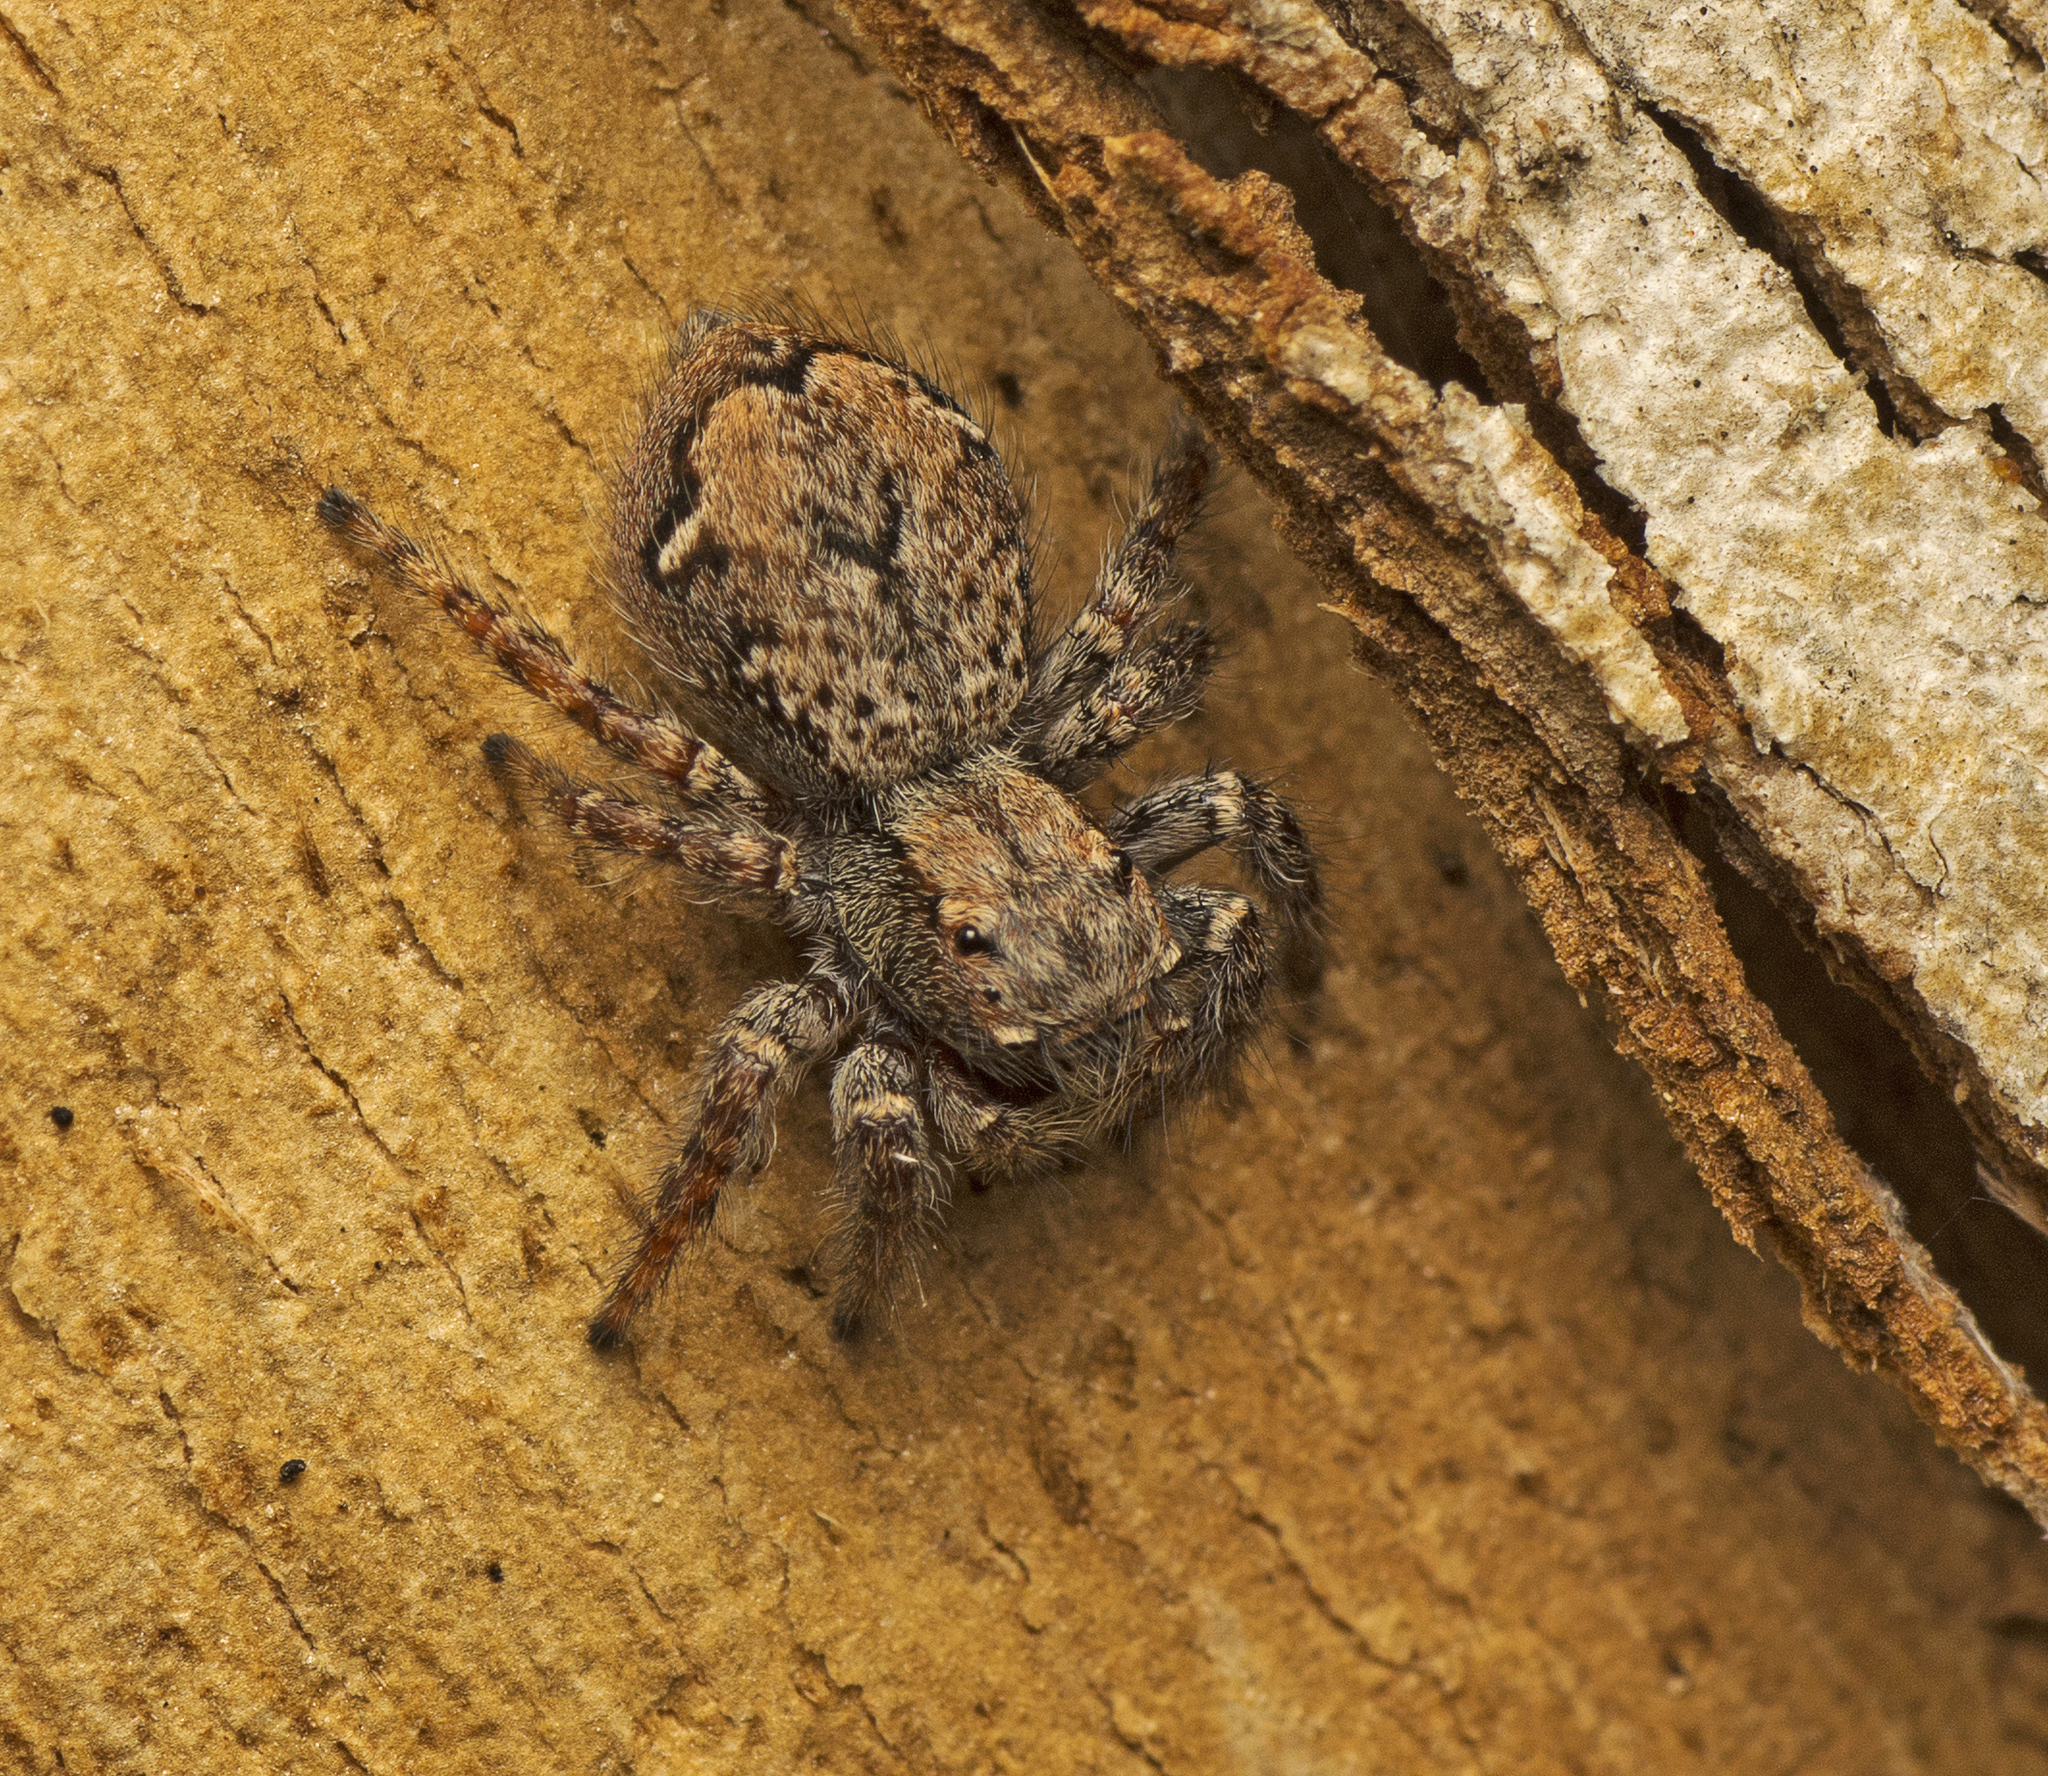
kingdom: Animalia
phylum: Arthropoda
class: Arachnida
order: Araneae
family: Salticidae
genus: Servaea
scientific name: Servaea incana
